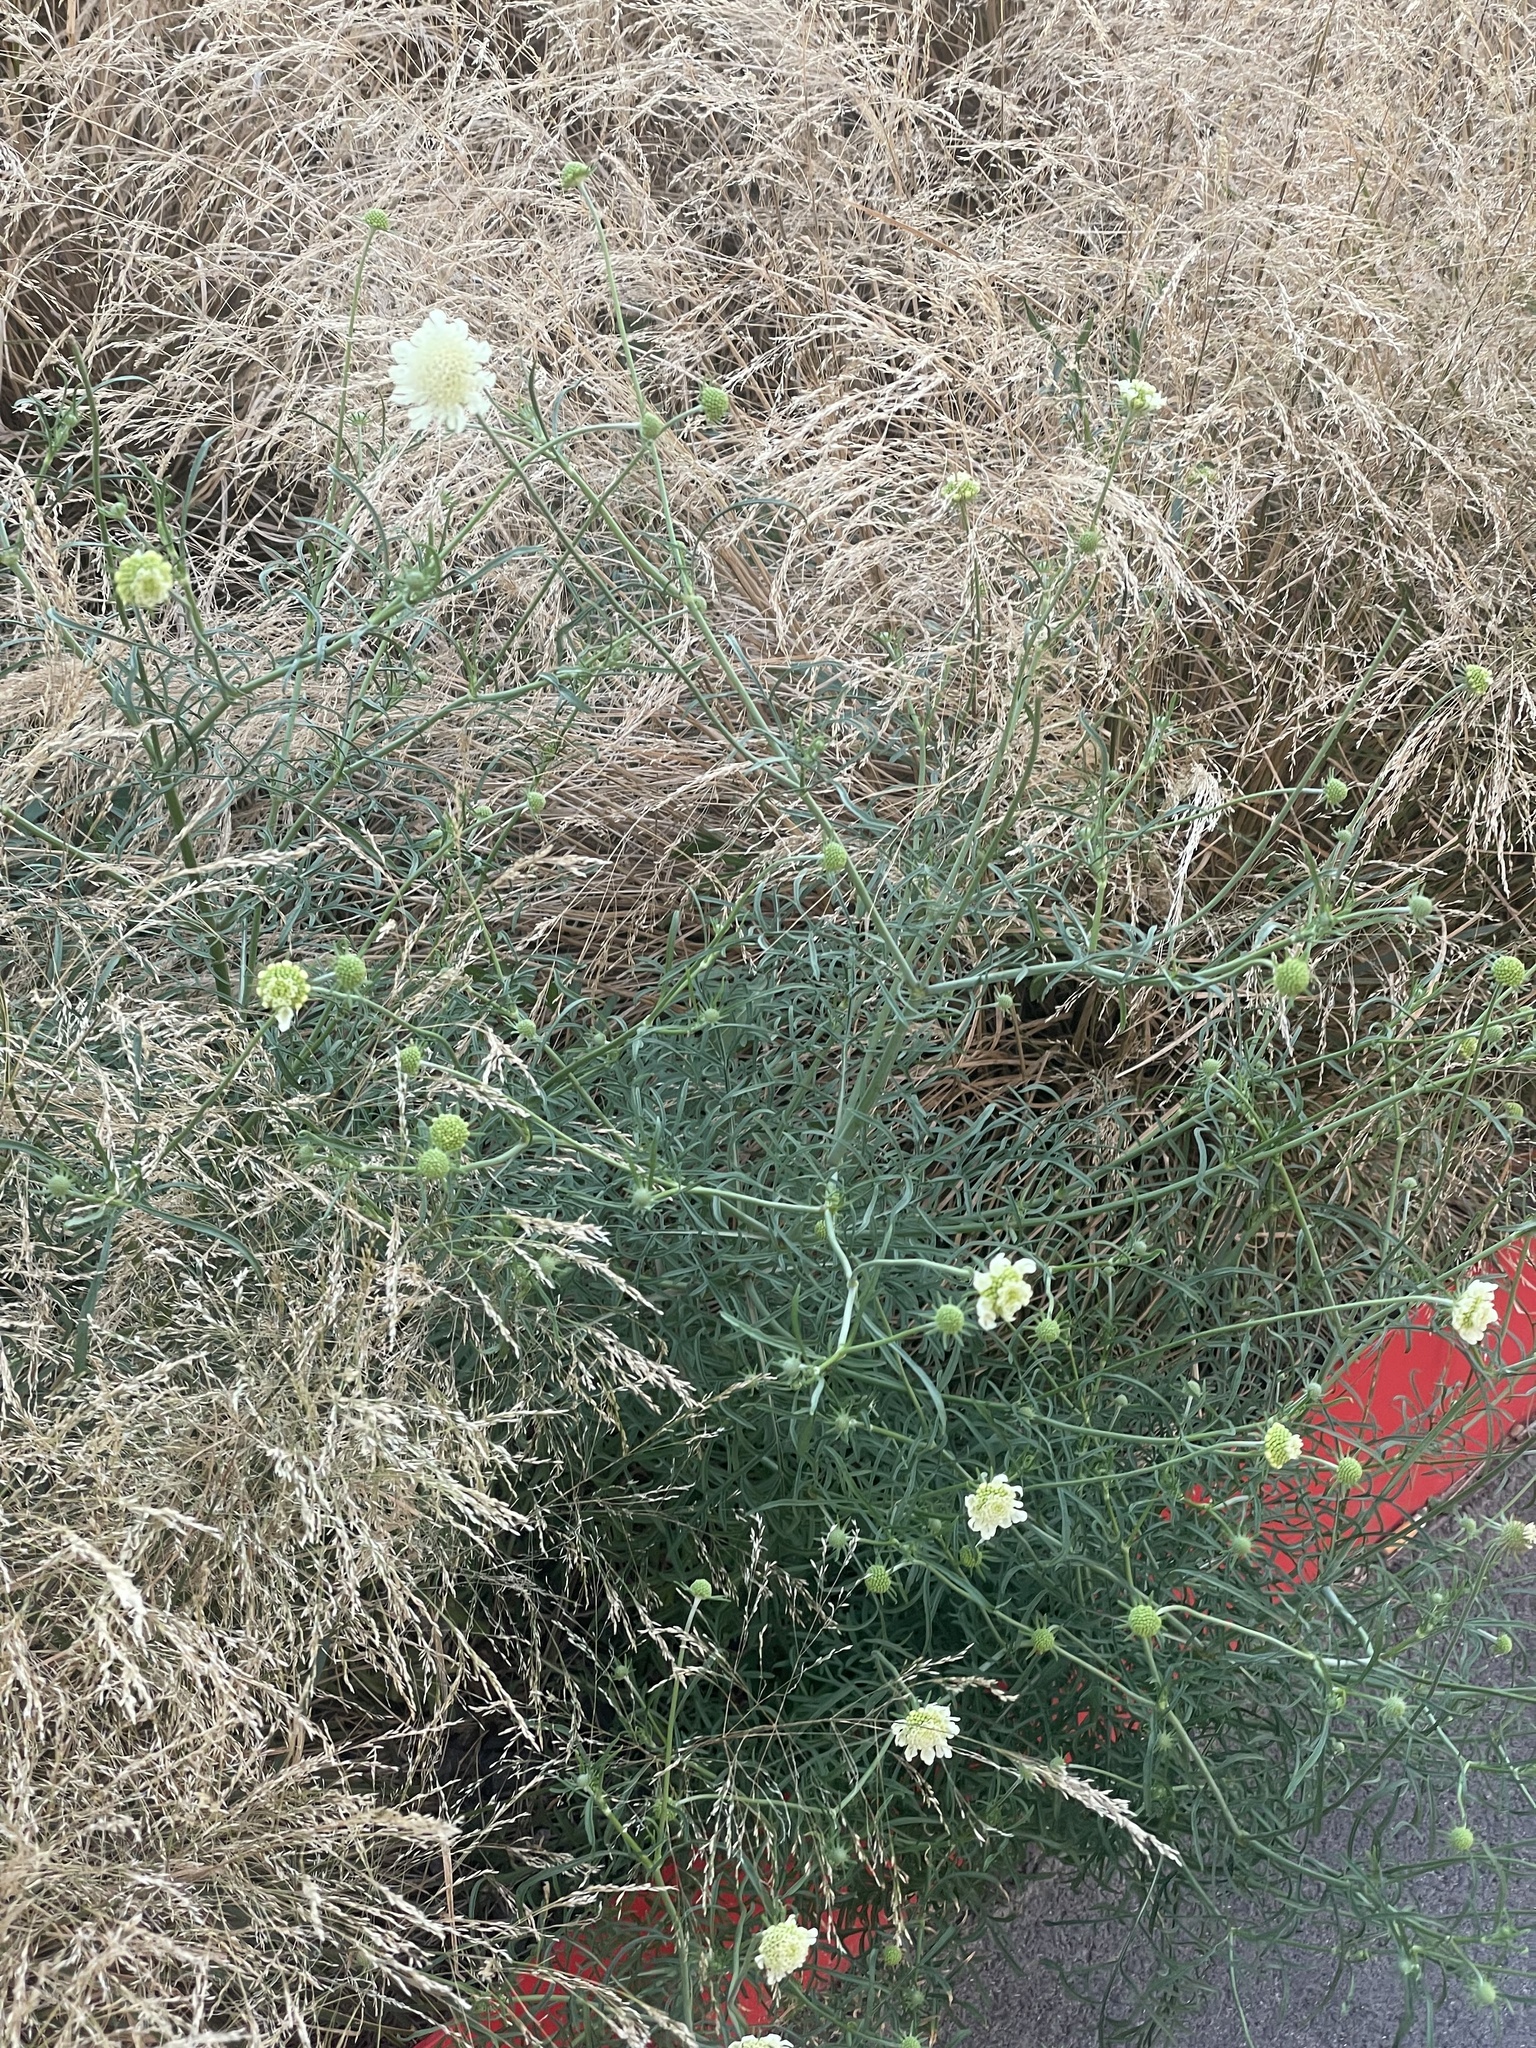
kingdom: Plantae
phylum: Tracheophyta
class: Magnoliopsida
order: Dipsacales
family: Caprifoliaceae
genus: Scabiosa
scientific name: Scabiosa ochroleuca
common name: Cream pincushions
